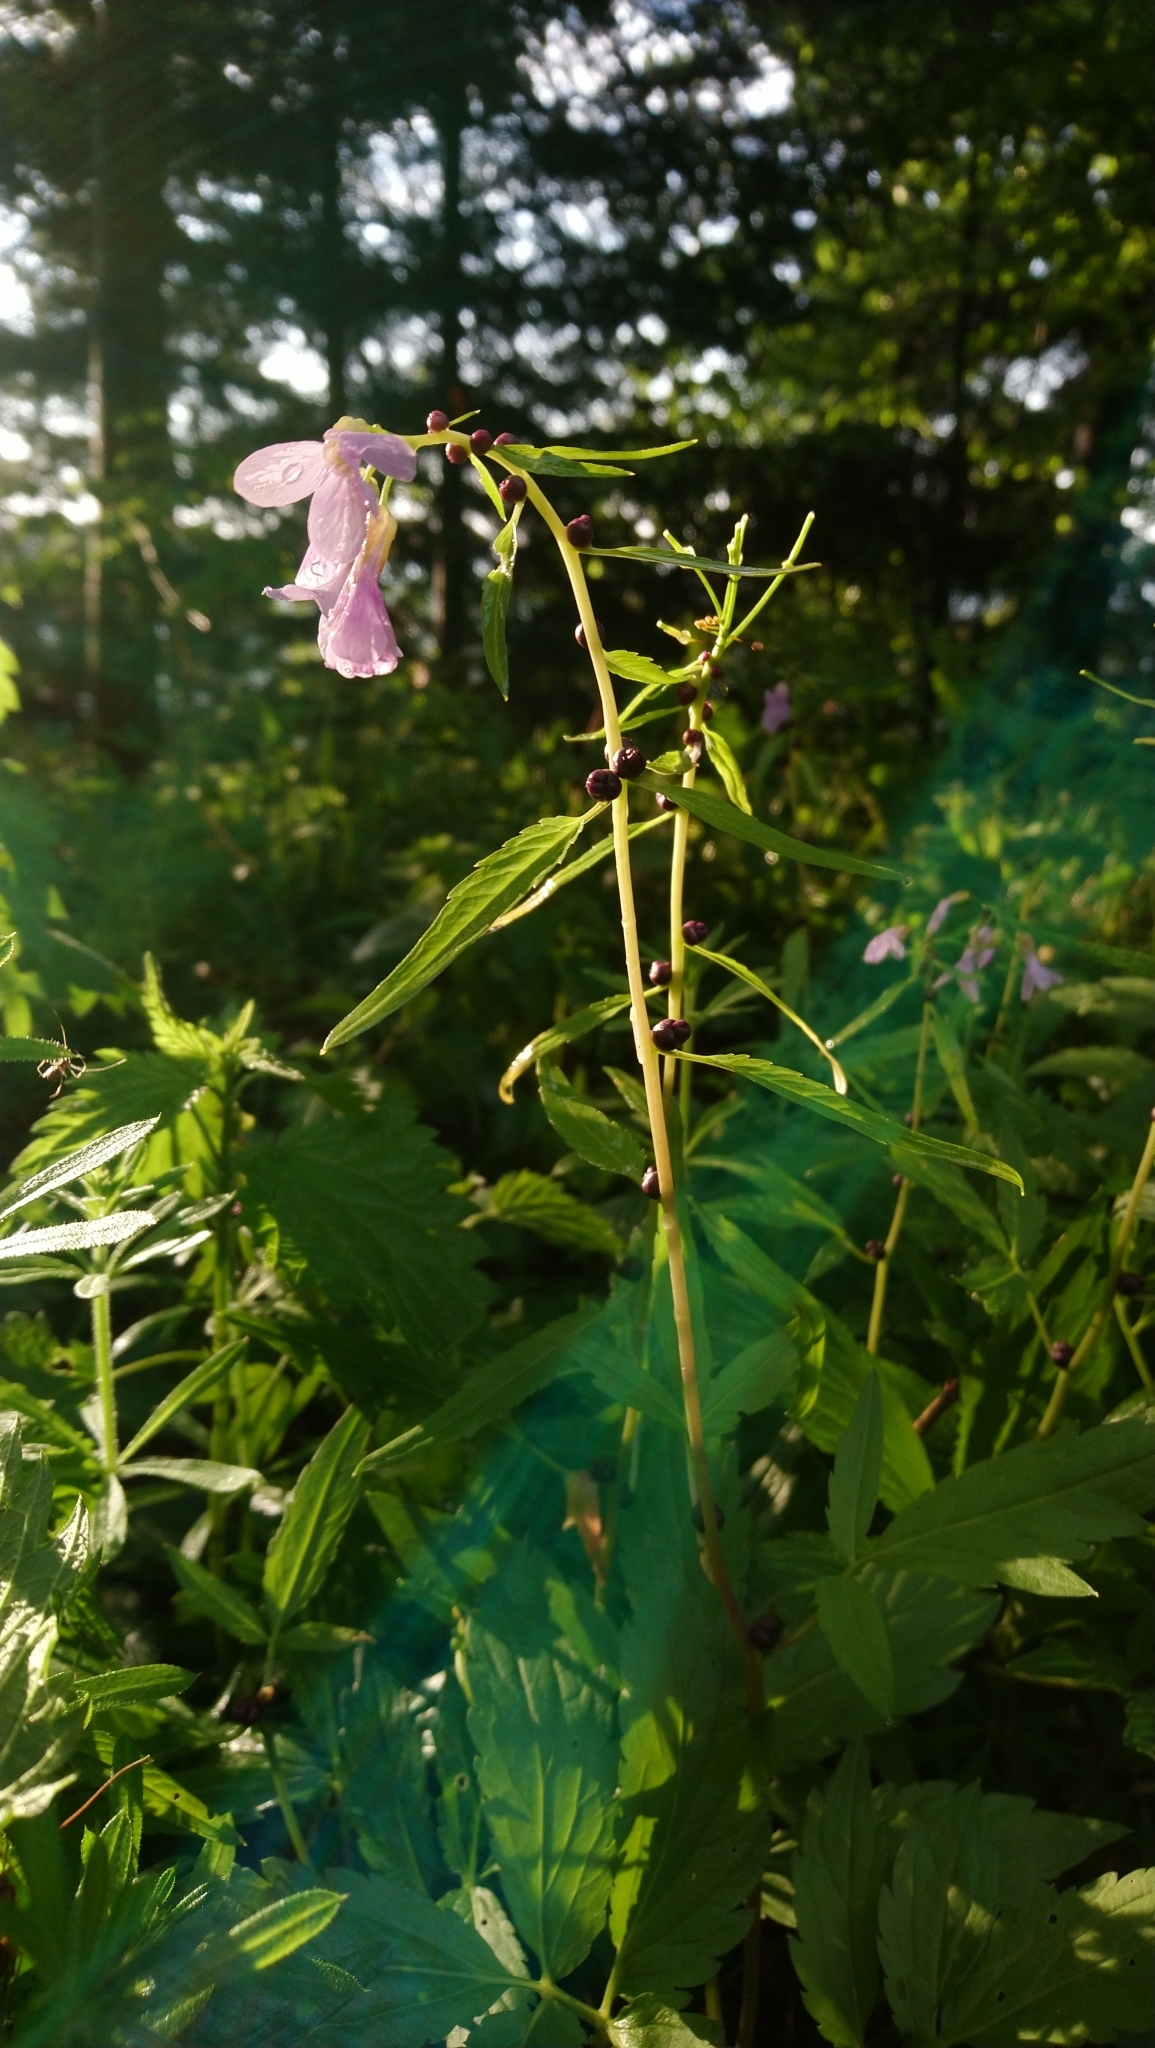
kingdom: Plantae
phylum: Tracheophyta
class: Magnoliopsida
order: Brassicales
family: Brassicaceae
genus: Cardamine
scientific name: Cardamine bulbifera
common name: Coralroot bittercress
